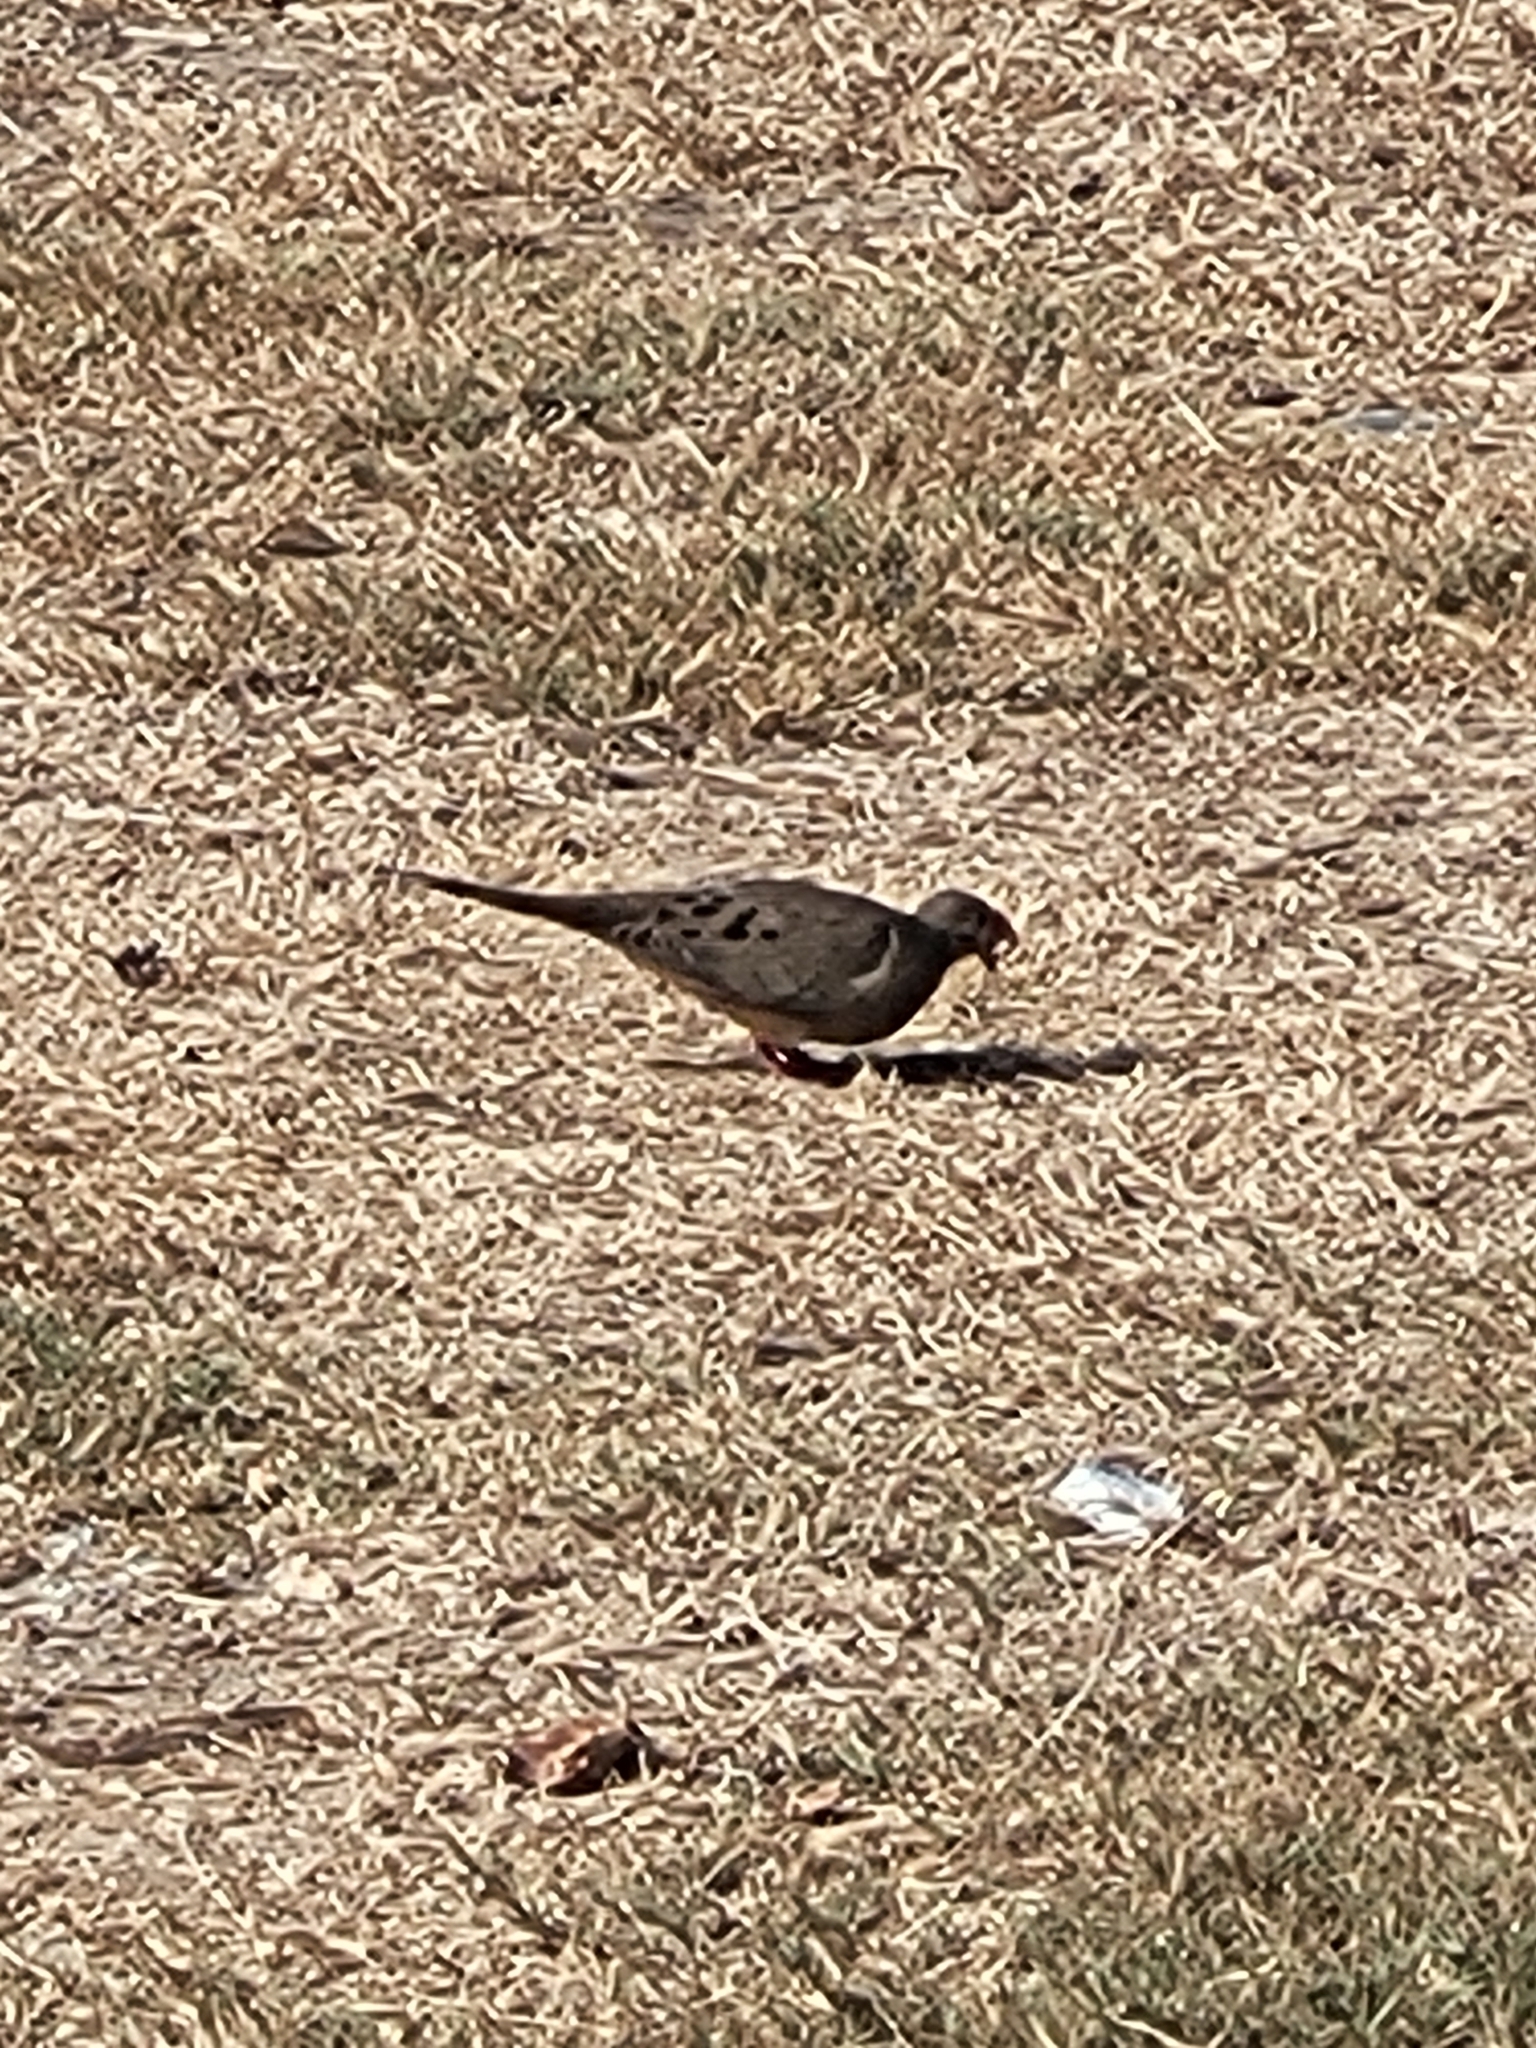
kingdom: Animalia
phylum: Chordata
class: Aves
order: Columbiformes
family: Columbidae
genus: Zenaida
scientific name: Zenaida macroura
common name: Mourning dove
